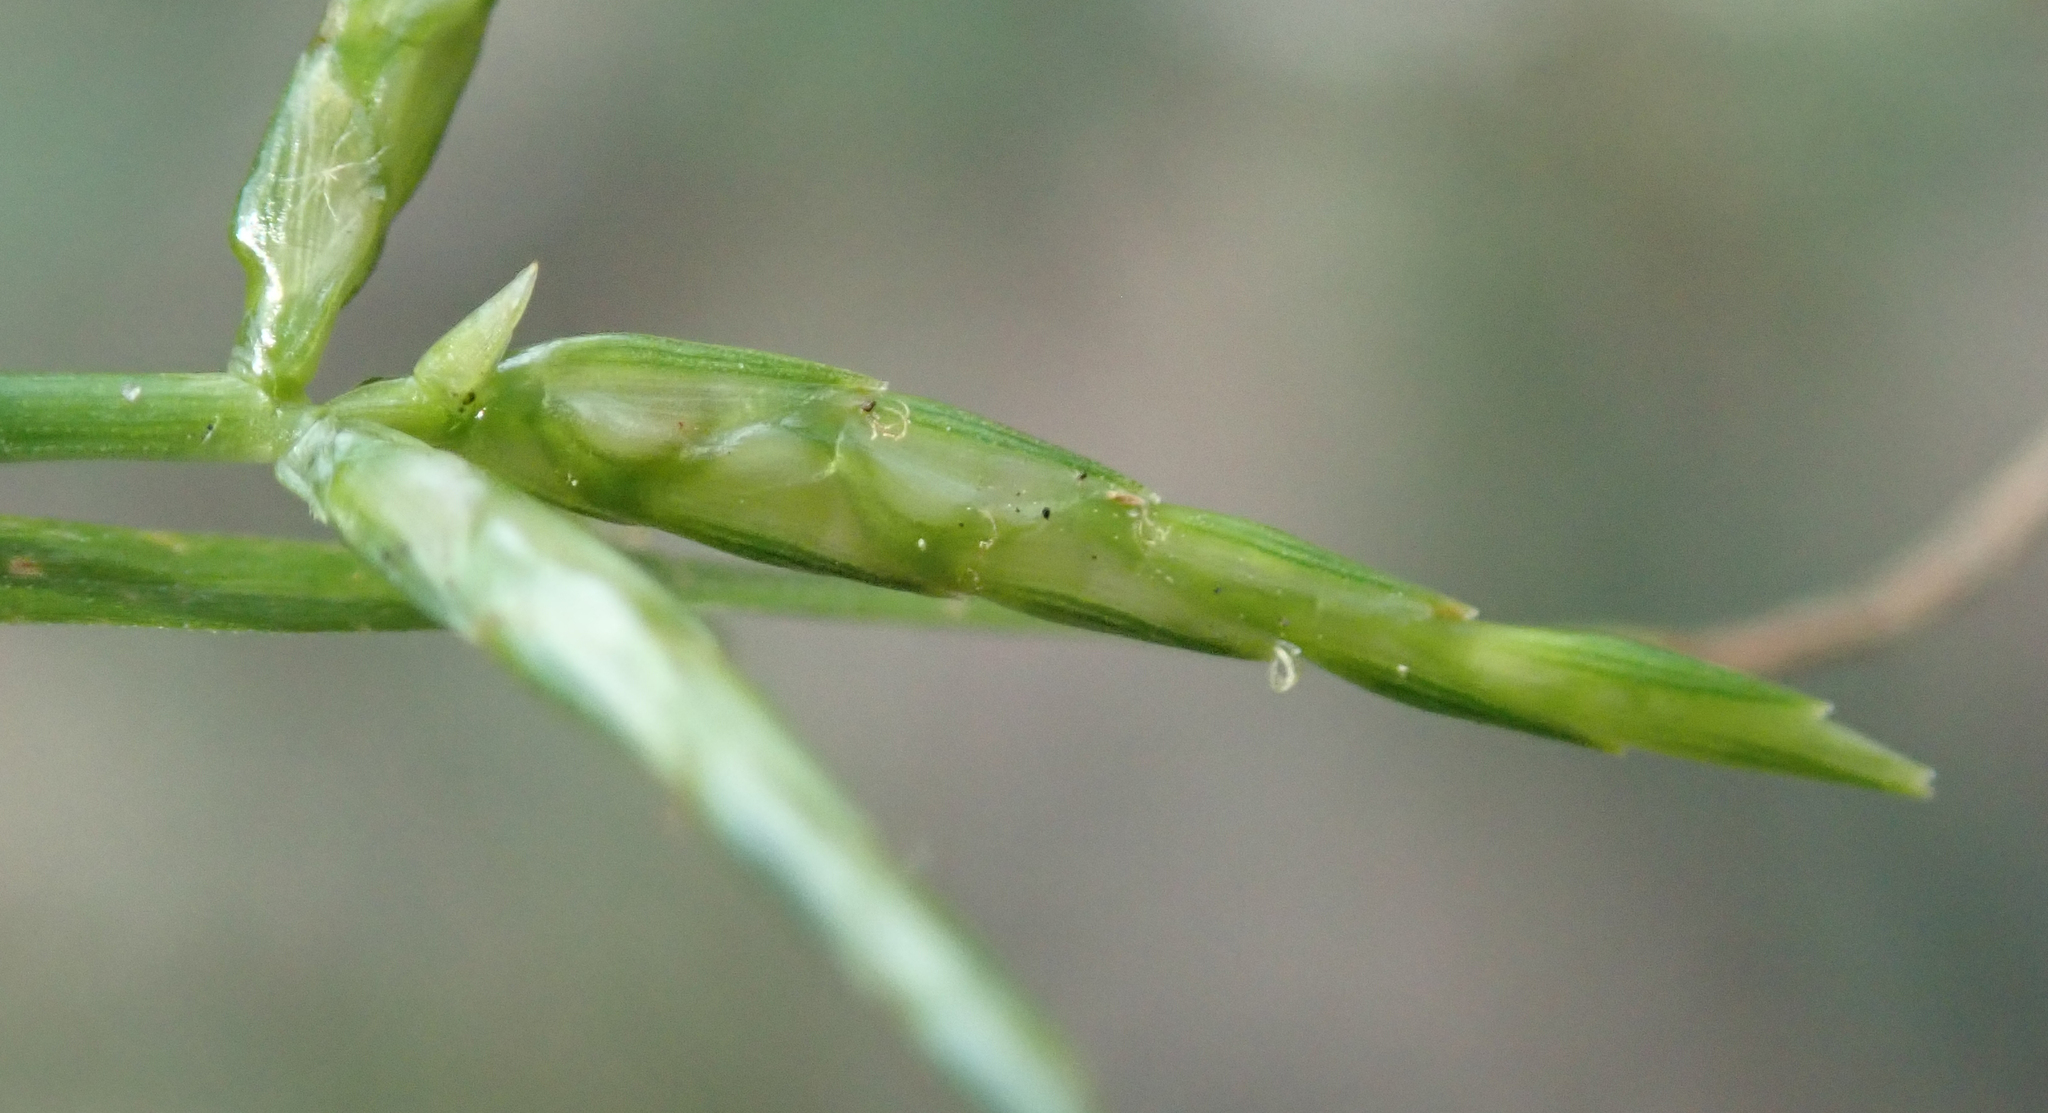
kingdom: Plantae
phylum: Tracheophyta
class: Liliopsida
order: Poales
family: Cyperaceae
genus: Cyperus
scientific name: Cyperus zollingeri
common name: Roadside flatsedge
